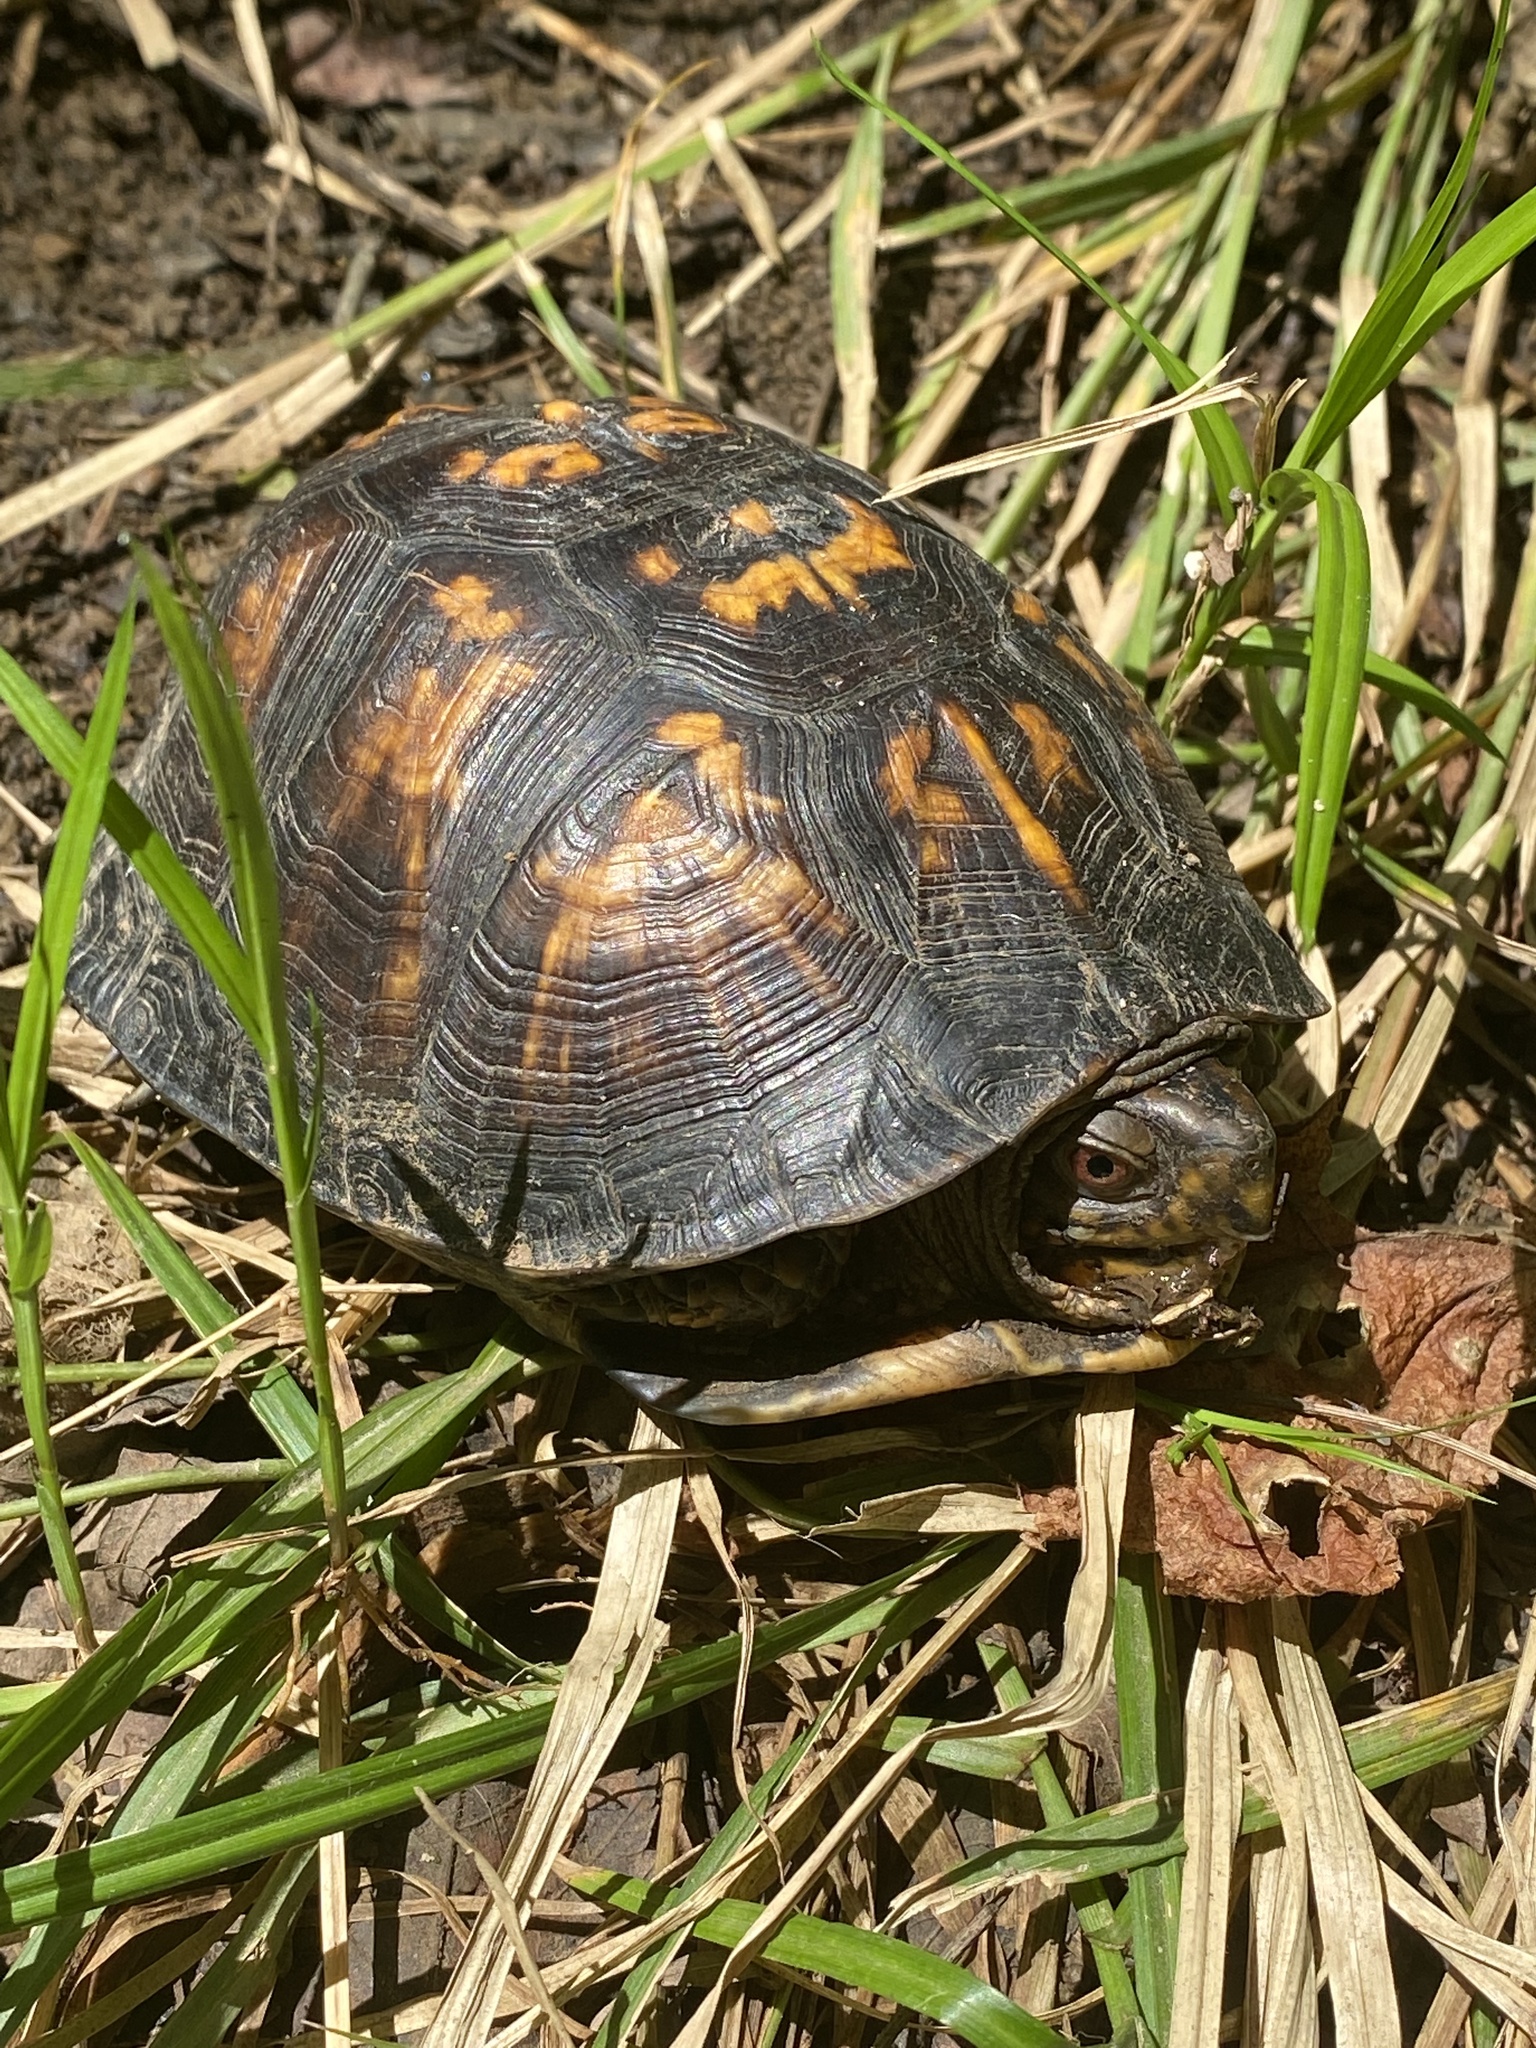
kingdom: Animalia
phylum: Chordata
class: Testudines
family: Emydidae
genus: Terrapene
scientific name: Terrapene carolina
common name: Common box turtle
